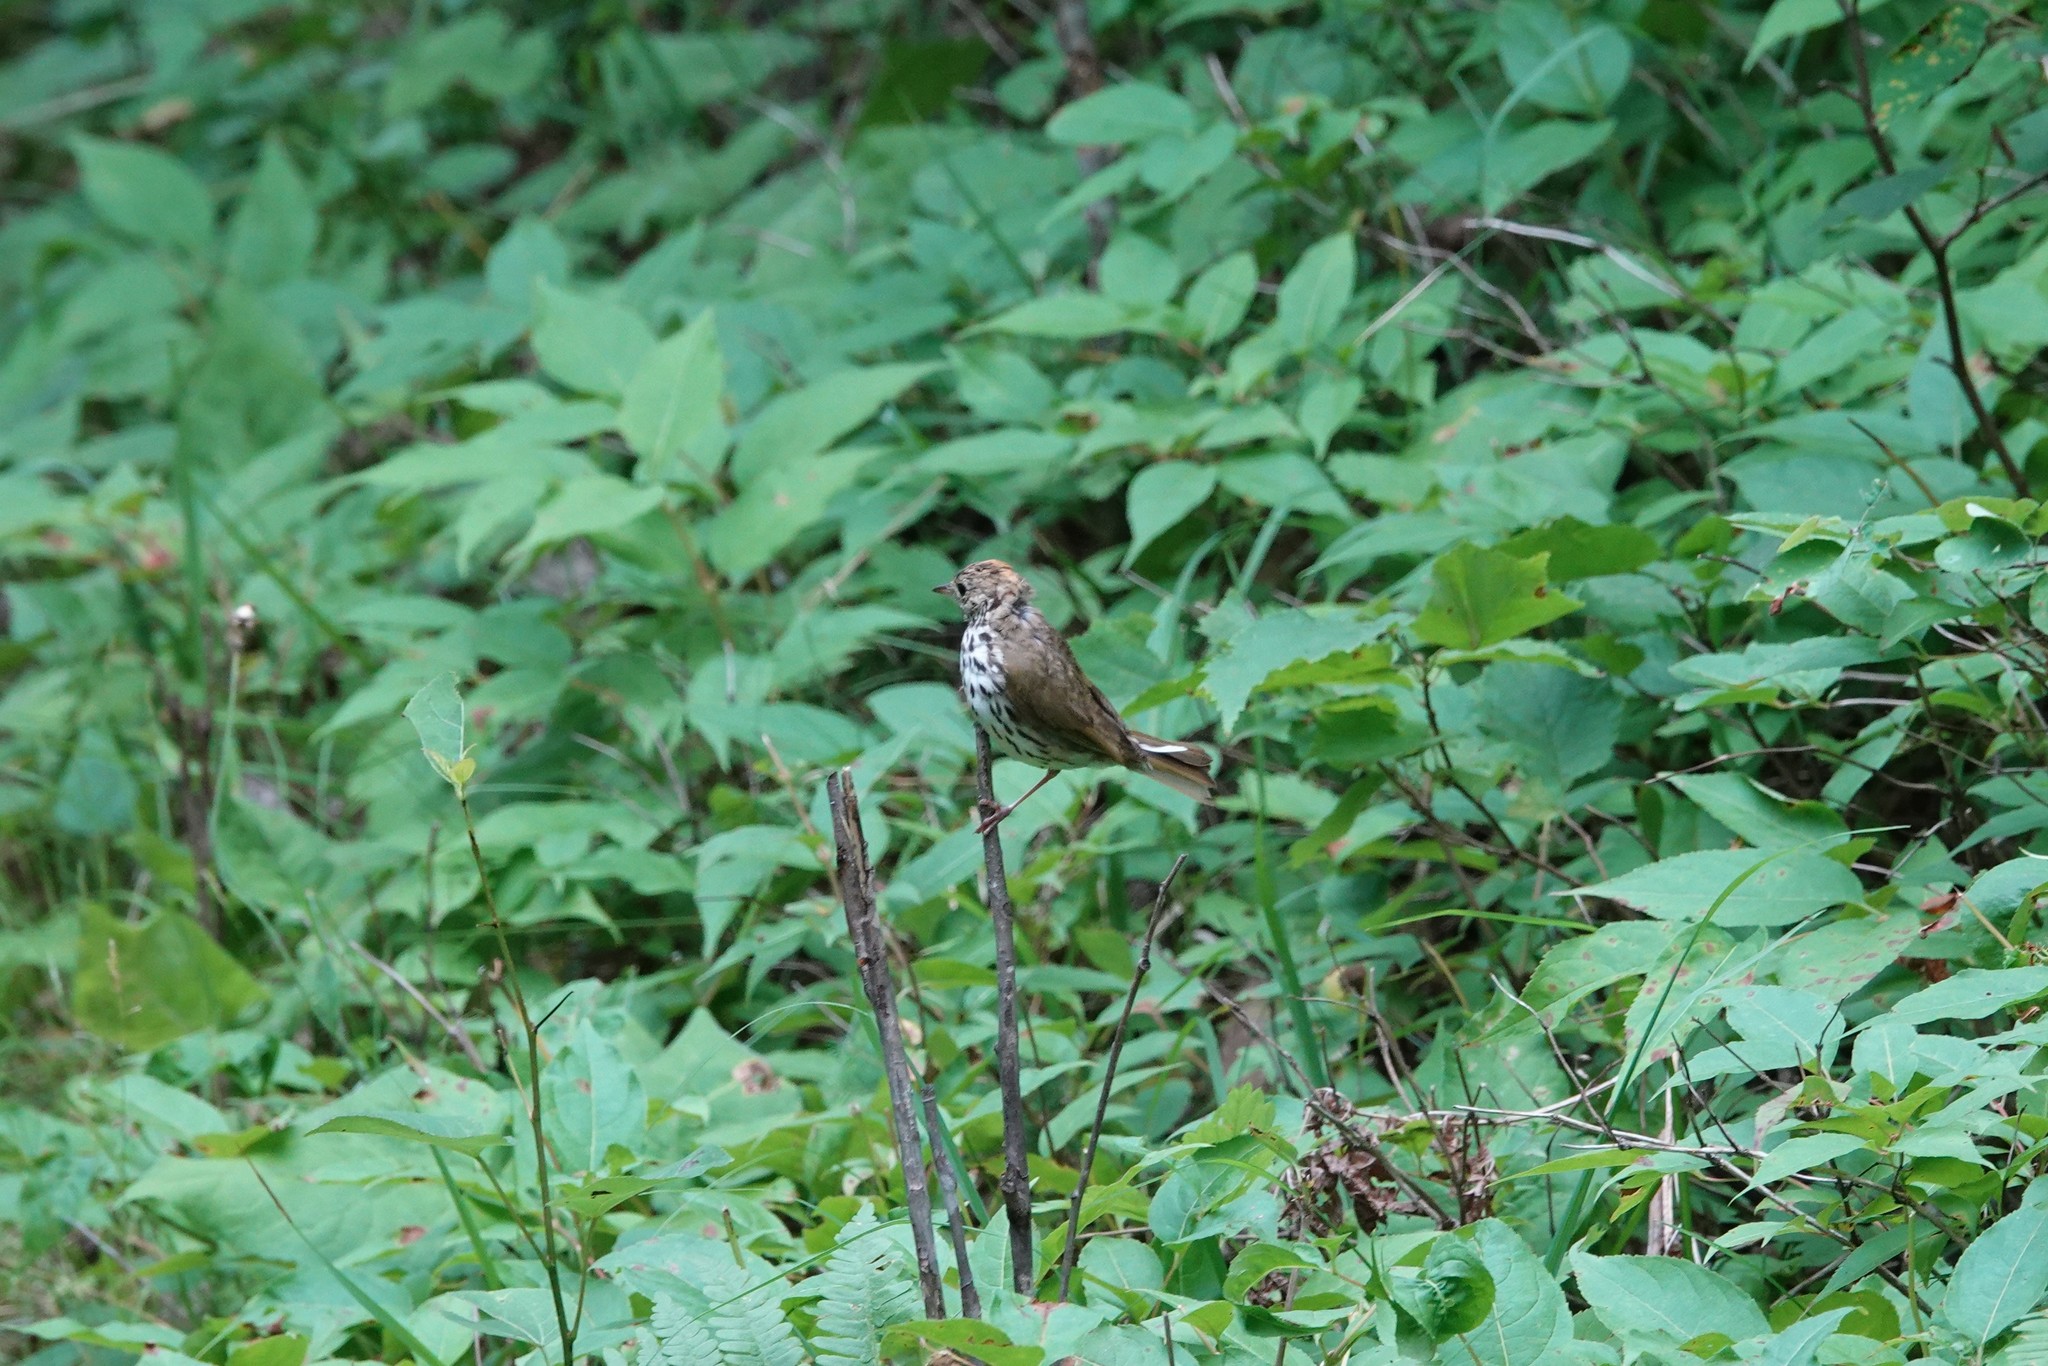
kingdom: Animalia
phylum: Chordata
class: Aves
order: Passeriformes
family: Parulidae
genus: Seiurus
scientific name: Seiurus aurocapilla
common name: Ovenbird
